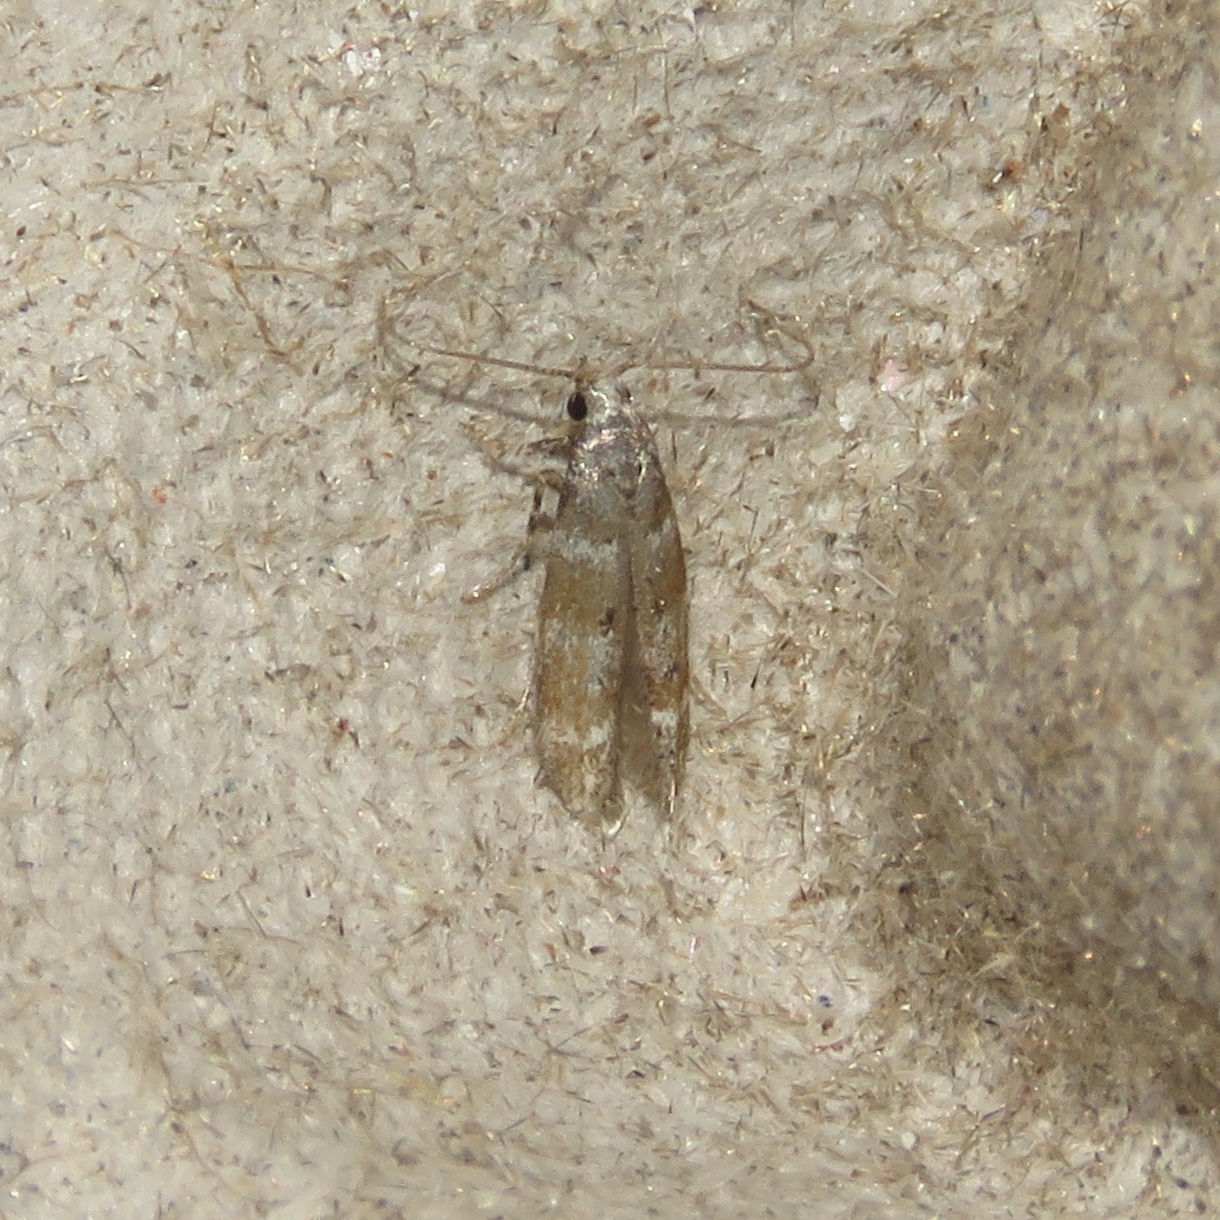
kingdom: Animalia
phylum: Arthropoda
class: Insecta
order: Lepidoptera
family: Gelechiidae
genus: Exoteleia
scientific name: Exoteleia pinifoliella
